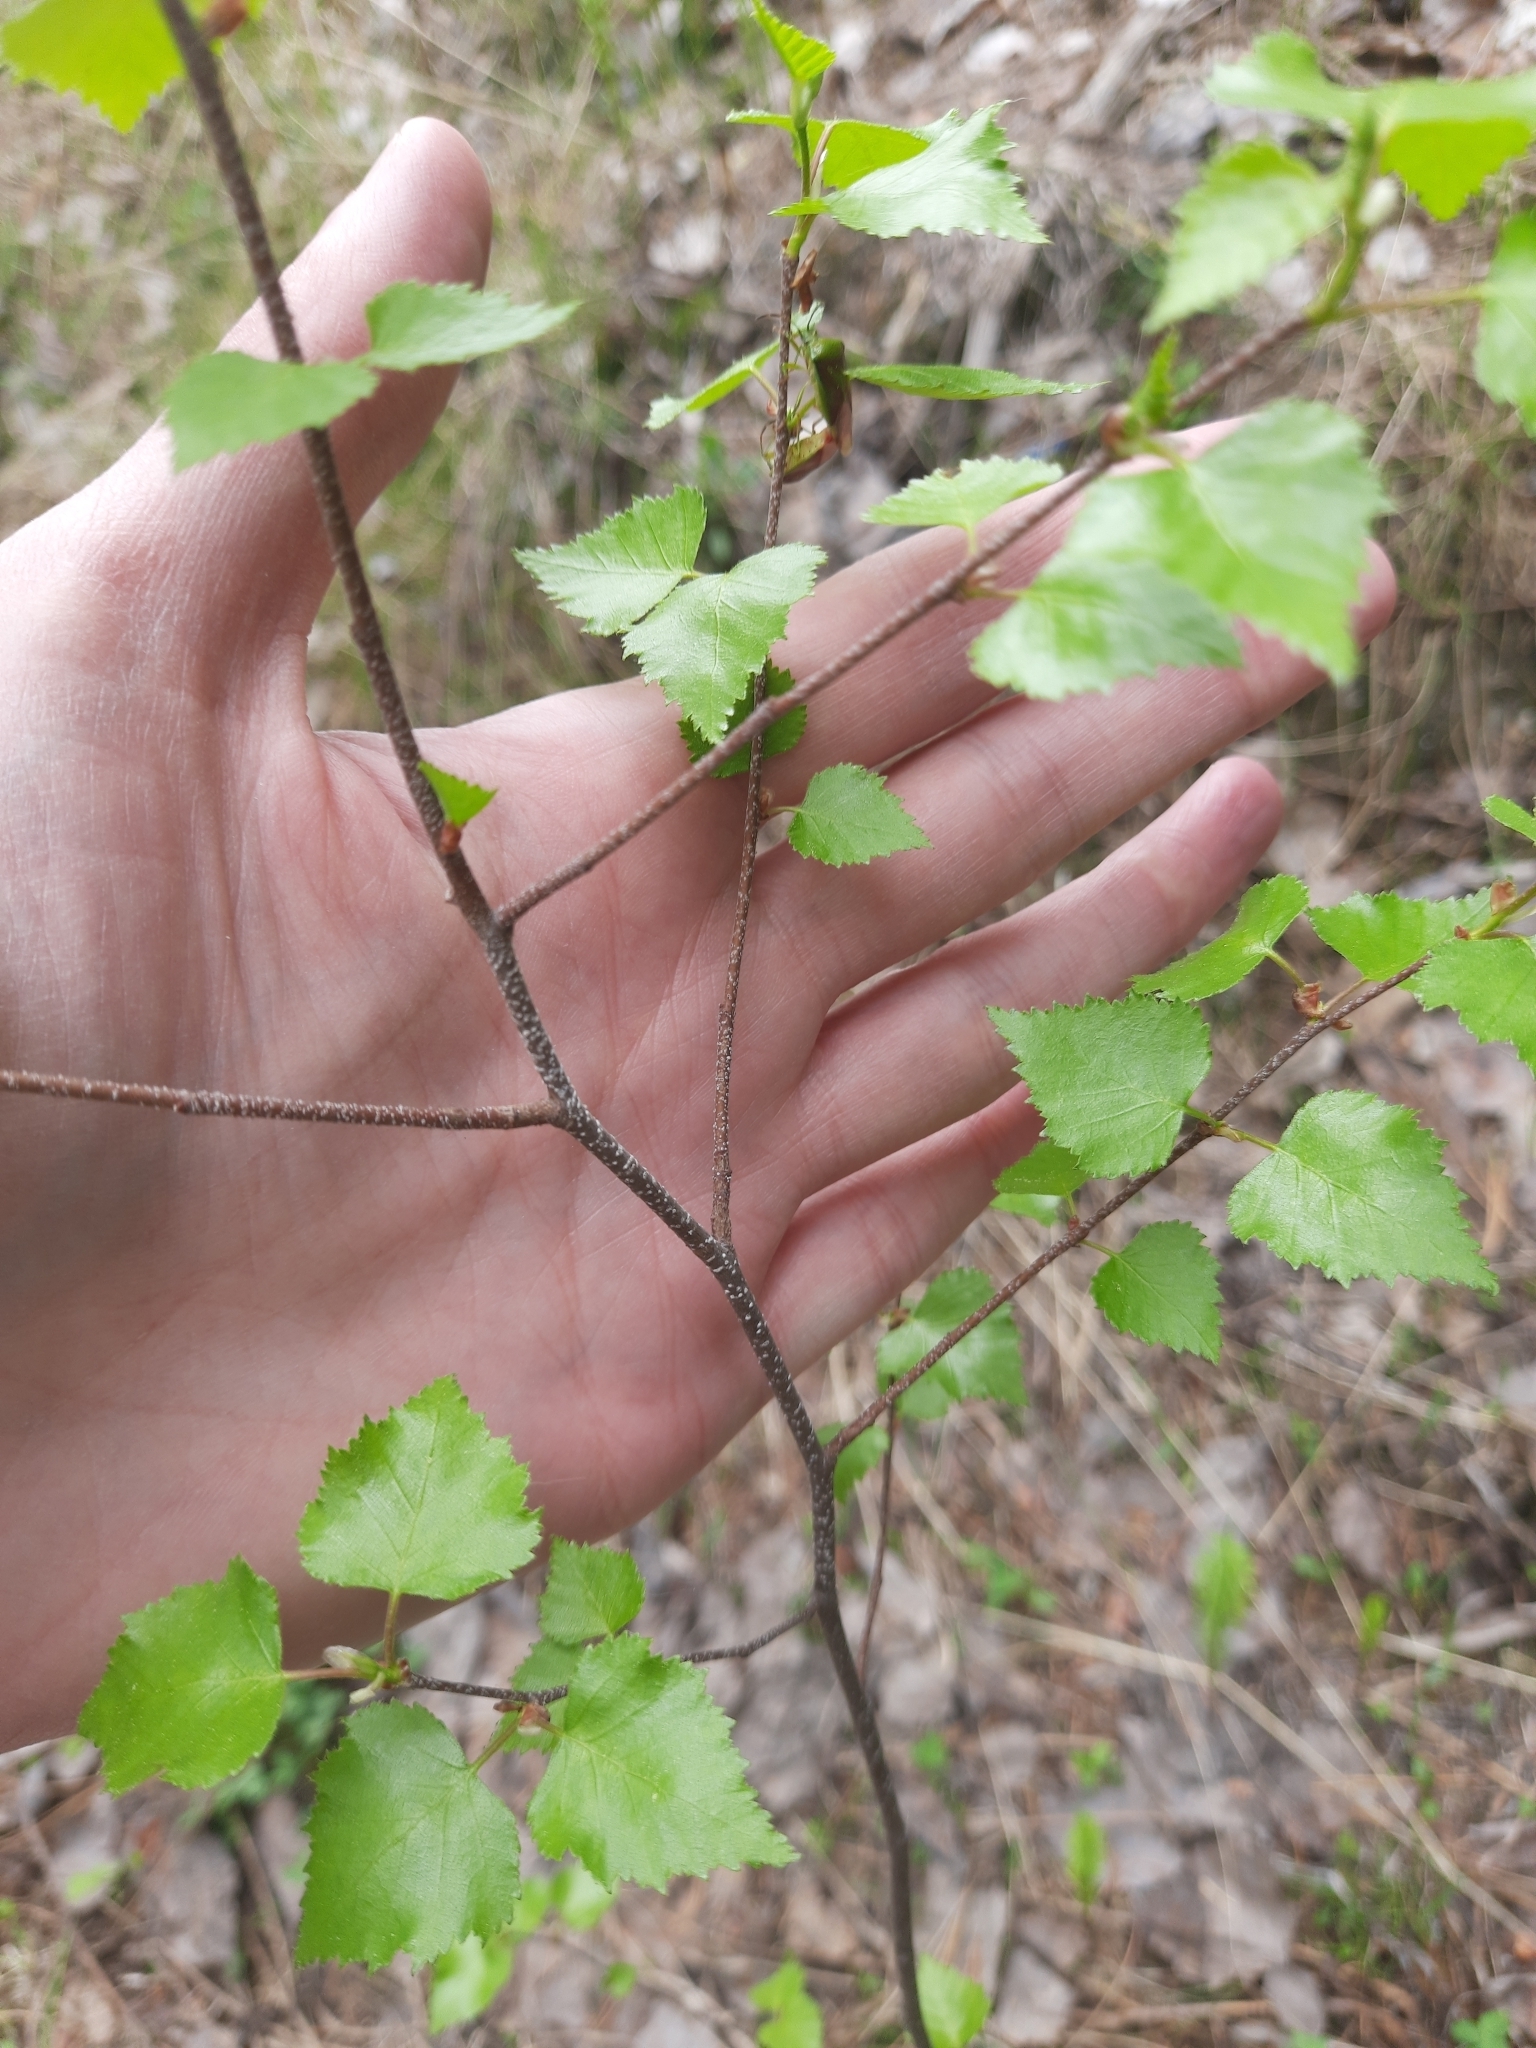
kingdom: Plantae
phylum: Tracheophyta
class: Magnoliopsida
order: Fagales
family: Betulaceae
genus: Betula
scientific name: Betula pendula
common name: Silver birch
